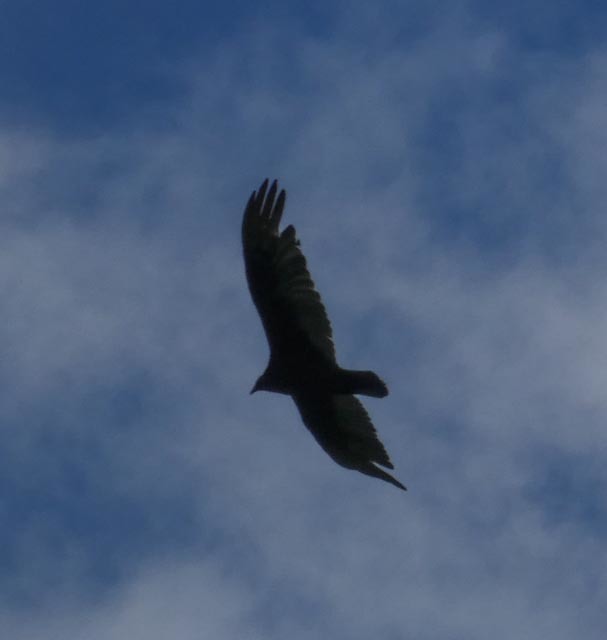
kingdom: Animalia
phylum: Chordata
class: Aves
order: Accipitriformes
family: Cathartidae
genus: Cathartes
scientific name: Cathartes aura
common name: Turkey vulture
